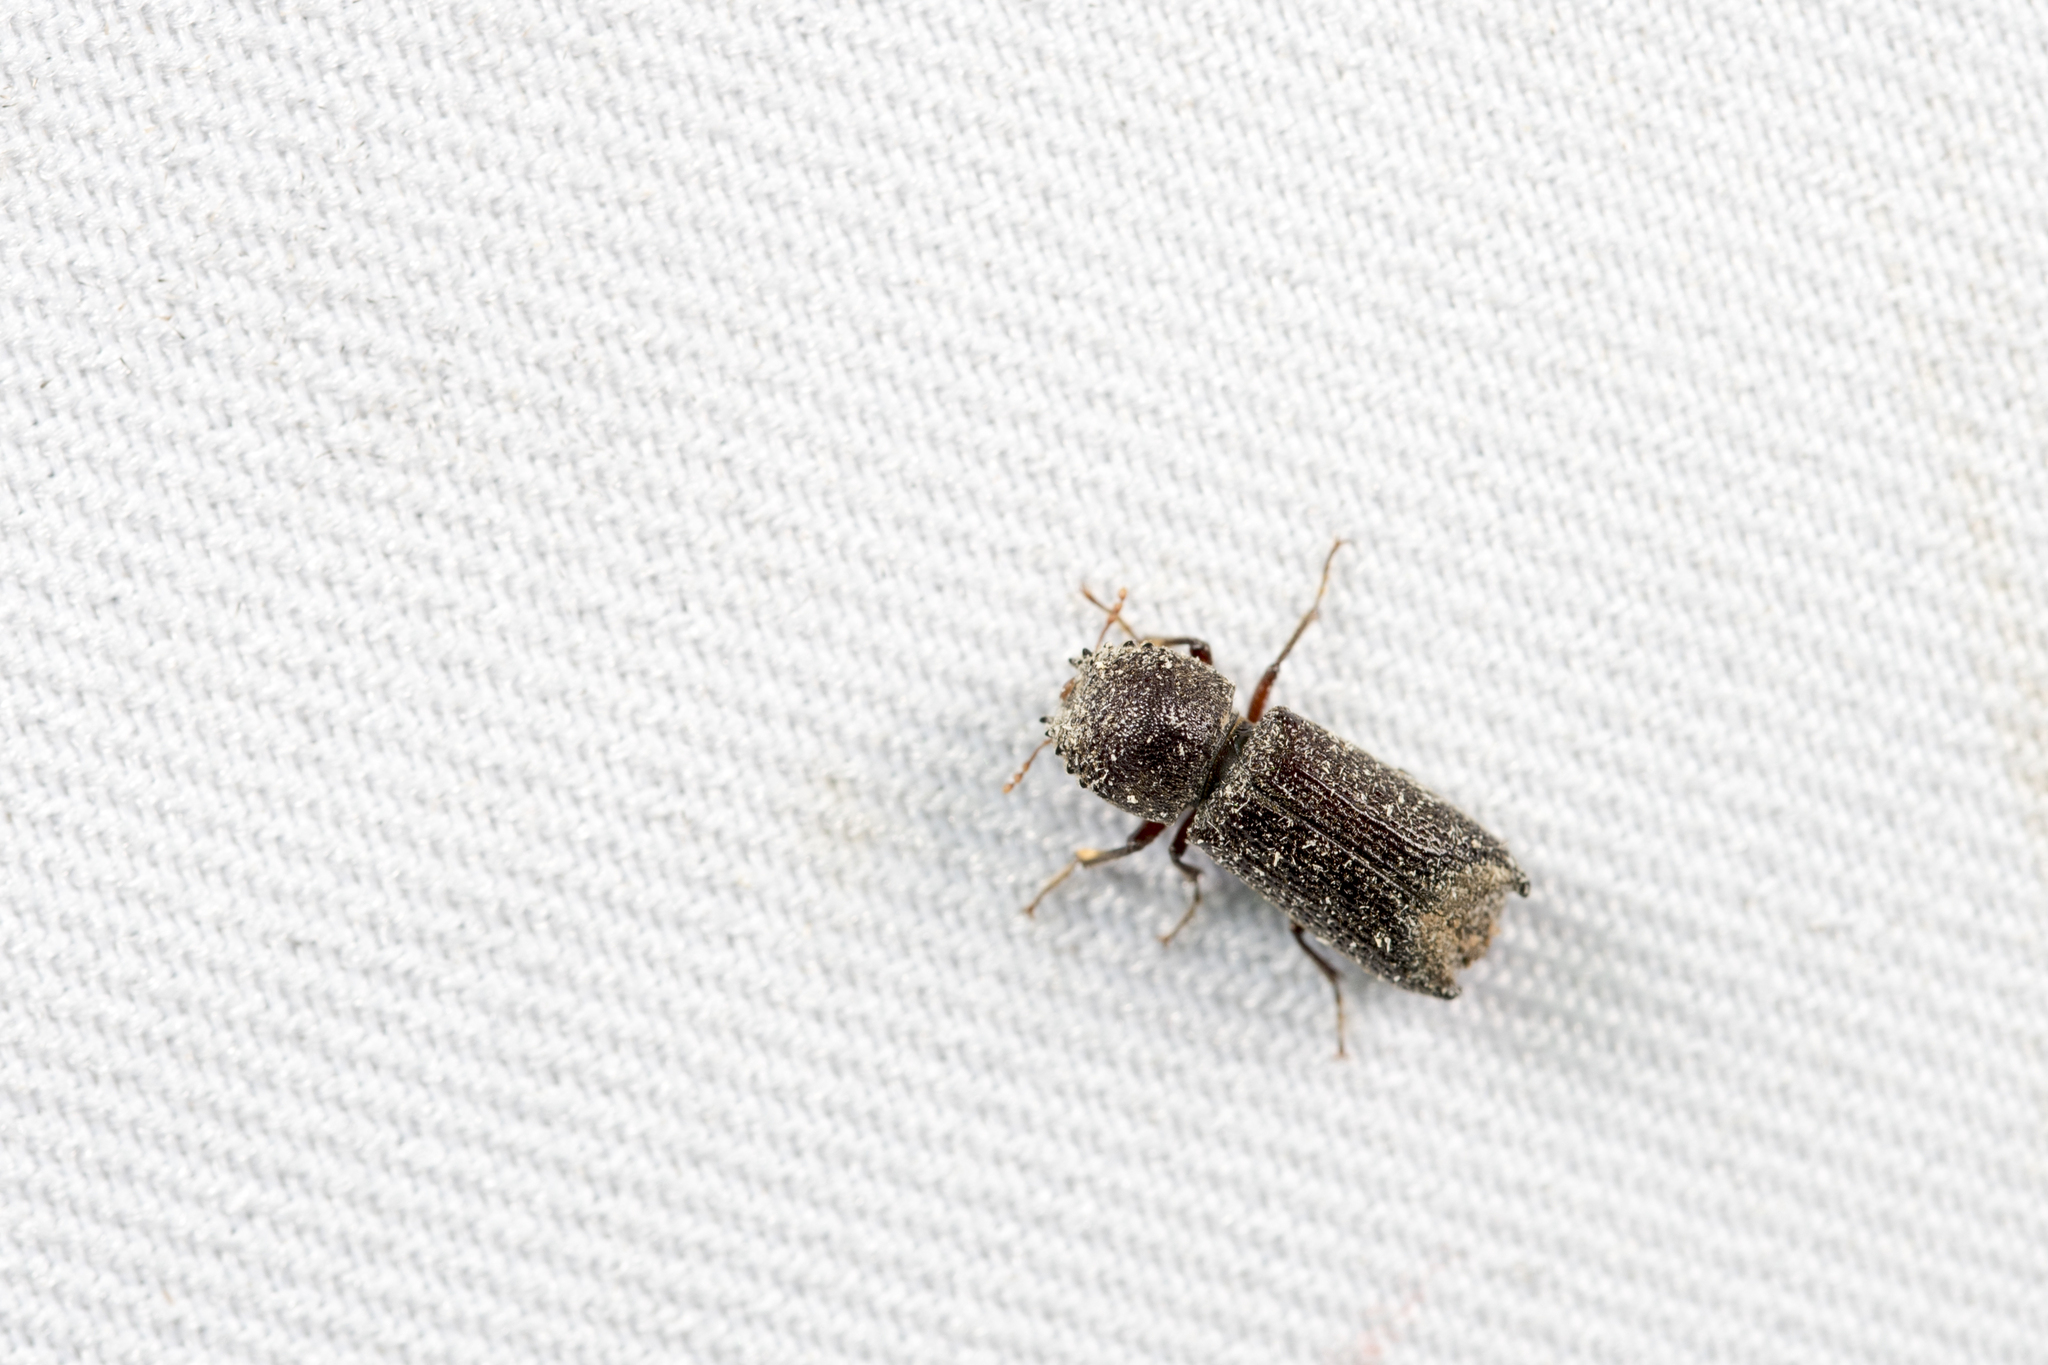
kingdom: Animalia
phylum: Arthropoda
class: Insecta
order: Coleoptera
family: Bostrichidae
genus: Heterobostrychus
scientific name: Heterobostrychus hamatipennis
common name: Bostrichid beetle
